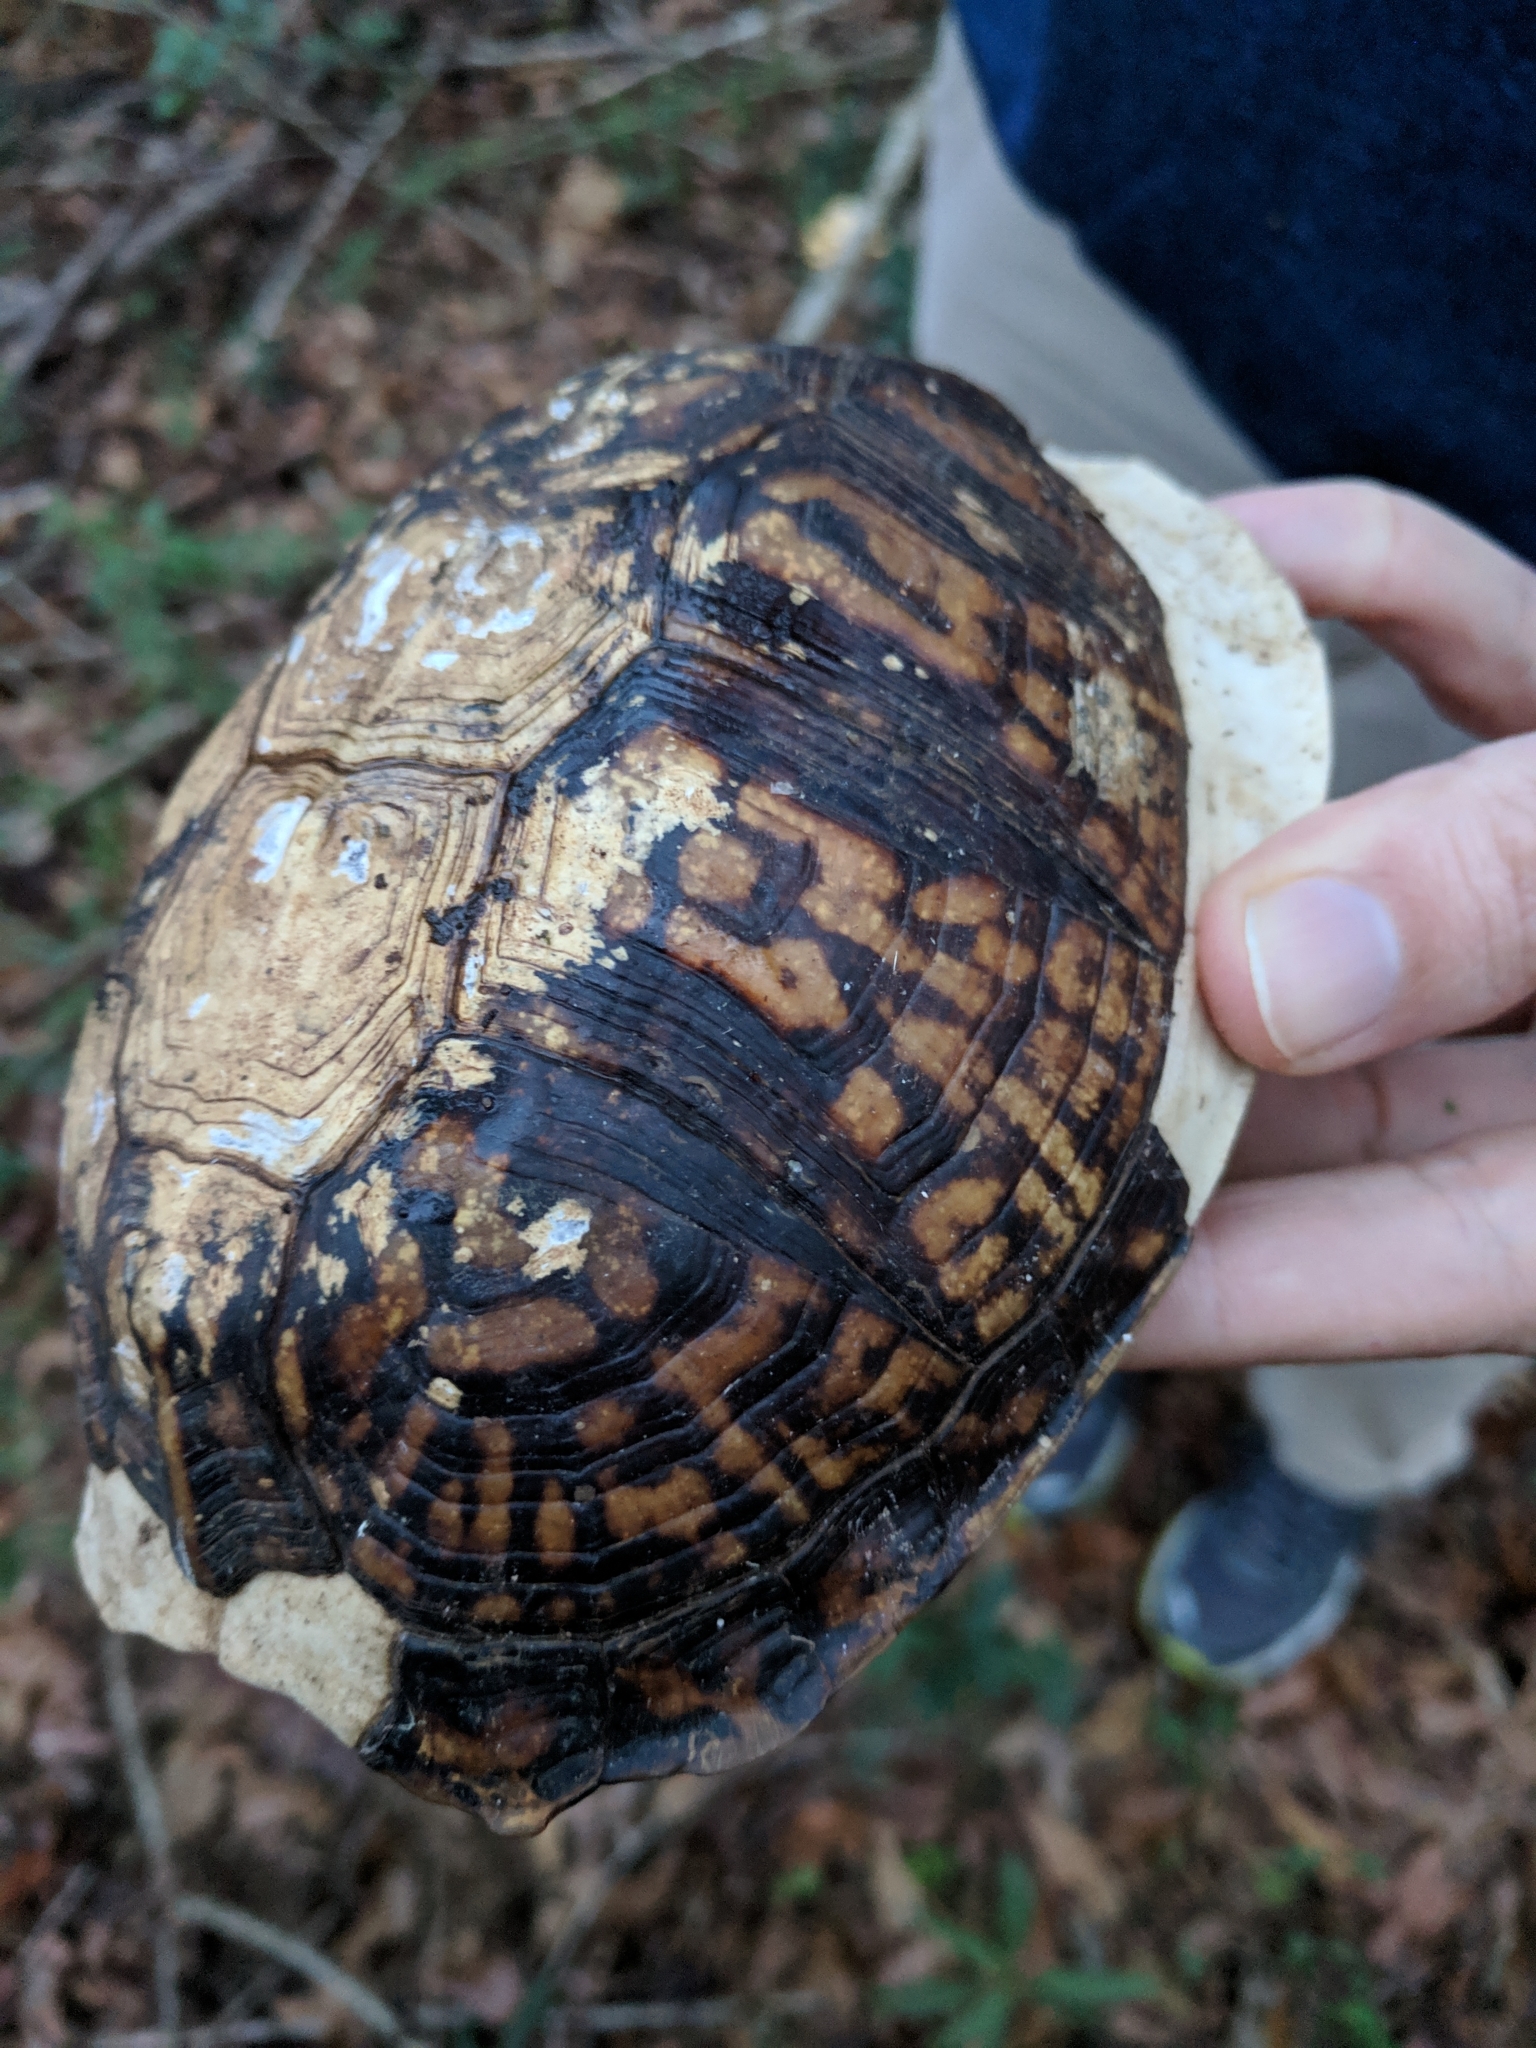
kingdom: Animalia
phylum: Chordata
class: Testudines
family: Emydidae
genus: Terrapene
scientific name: Terrapene carolina
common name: Common box turtle
